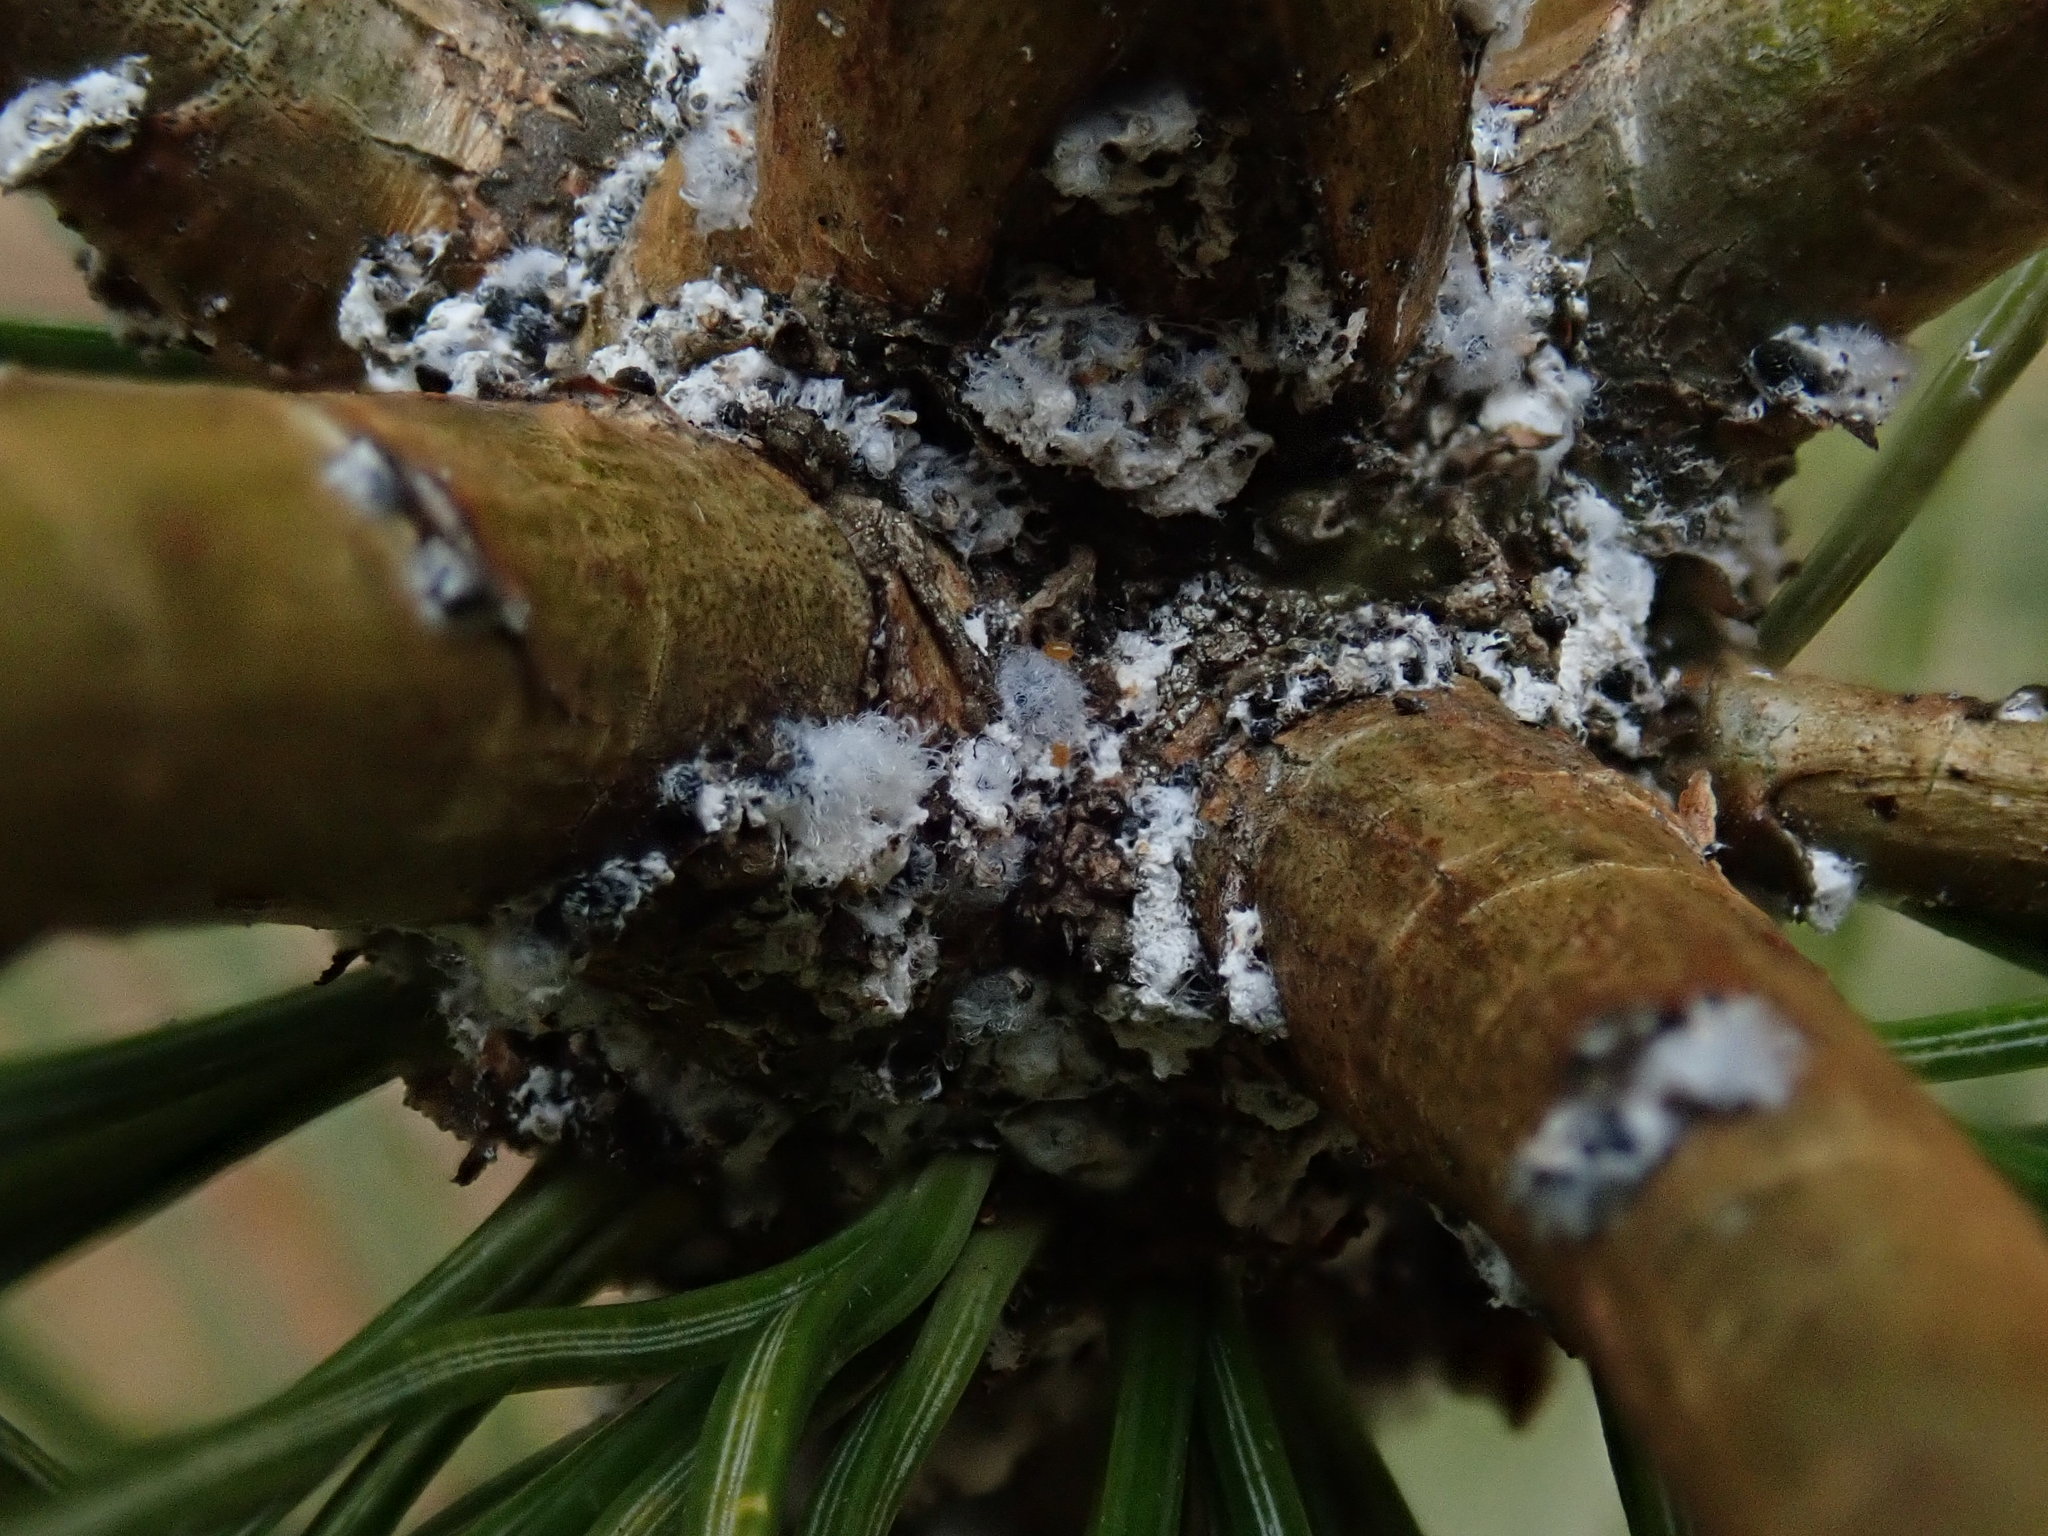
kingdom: Animalia
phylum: Arthropoda
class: Insecta
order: Hemiptera
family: Adelgidae
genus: Pineus
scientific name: Pineus strobi
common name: Pine bark adelgid
